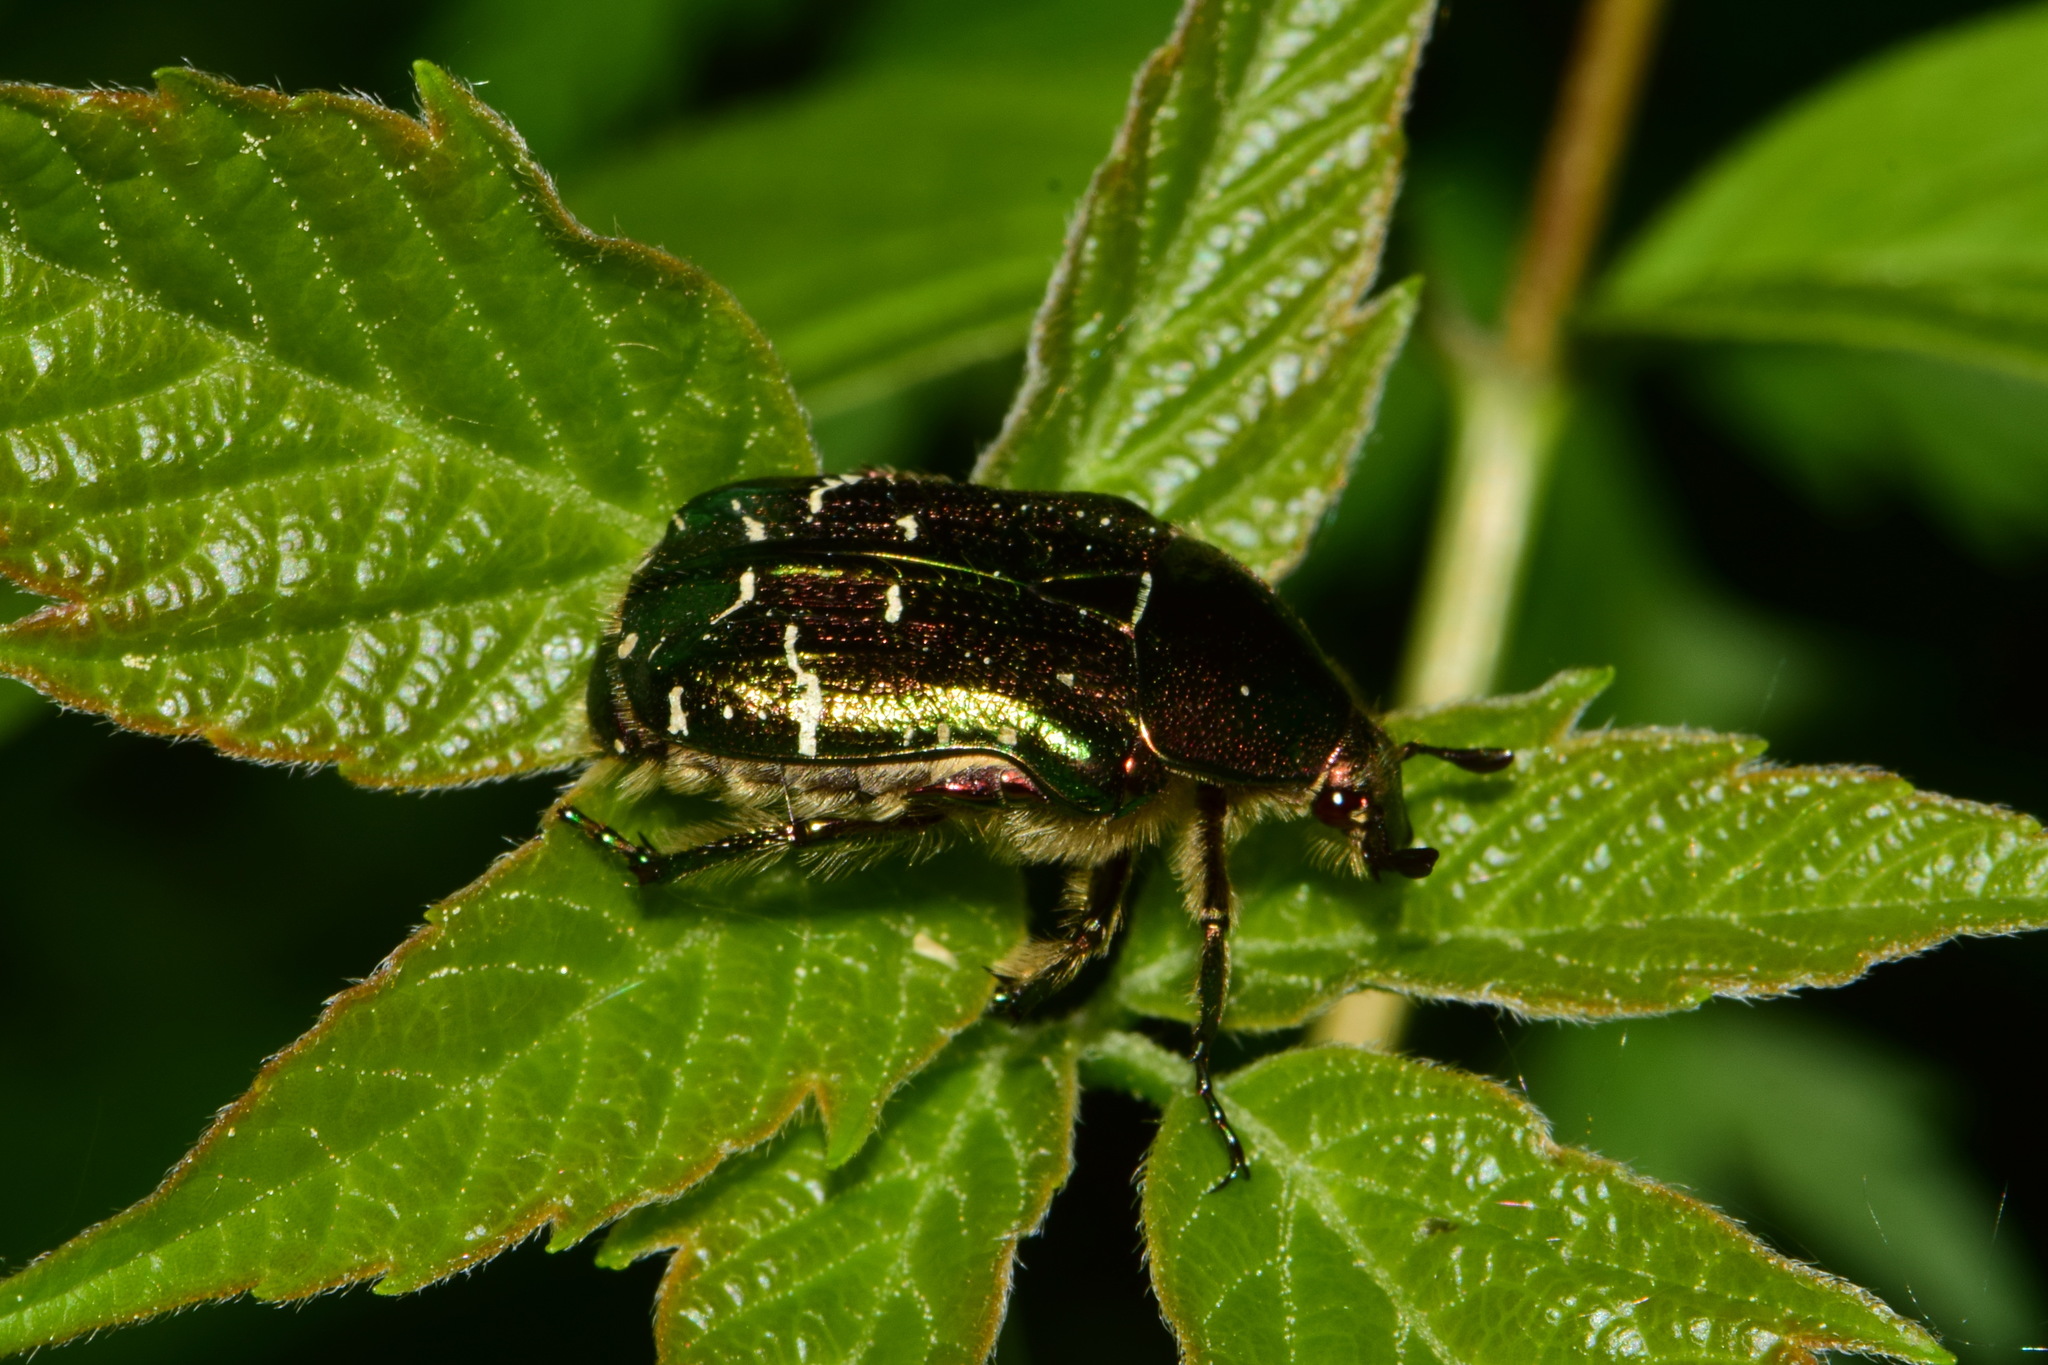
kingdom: Animalia
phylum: Arthropoda
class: Insecta
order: Coleoptera
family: Scarabaeidae
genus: Cetonia
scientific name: Cetonia aurata
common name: Rose chafer
